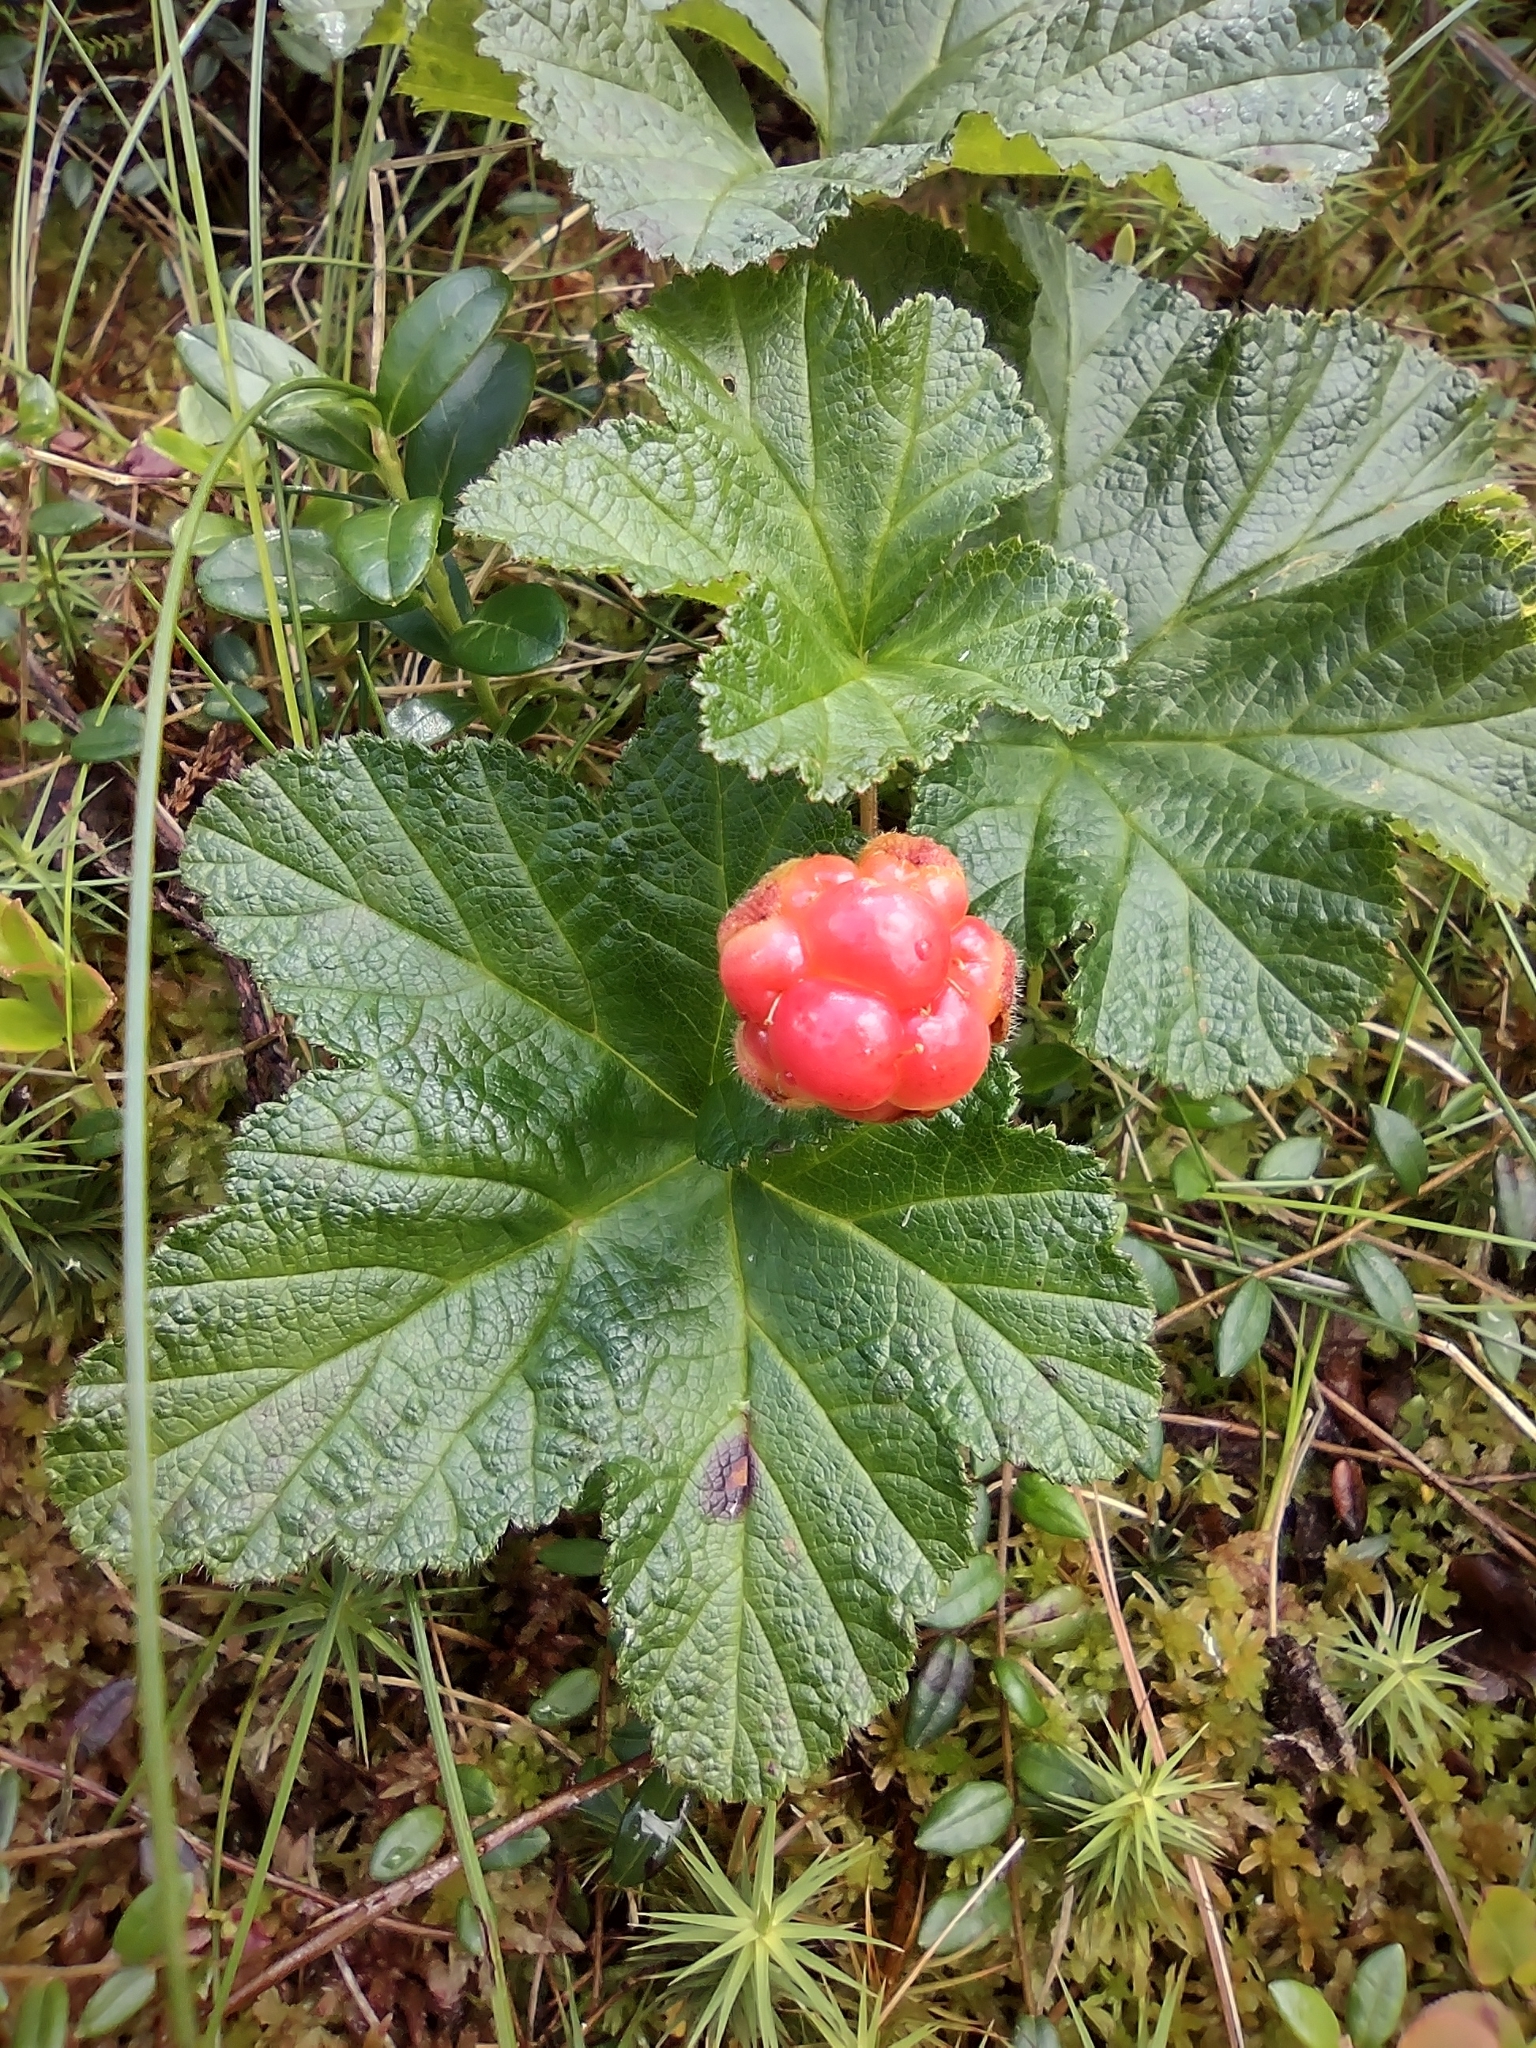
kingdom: Plantae
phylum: Tracheophyta
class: Magnoliopsida
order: Rosales
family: Rosaceae
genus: Rubus
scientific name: Rubus chamaemorus
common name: Cloudberry
